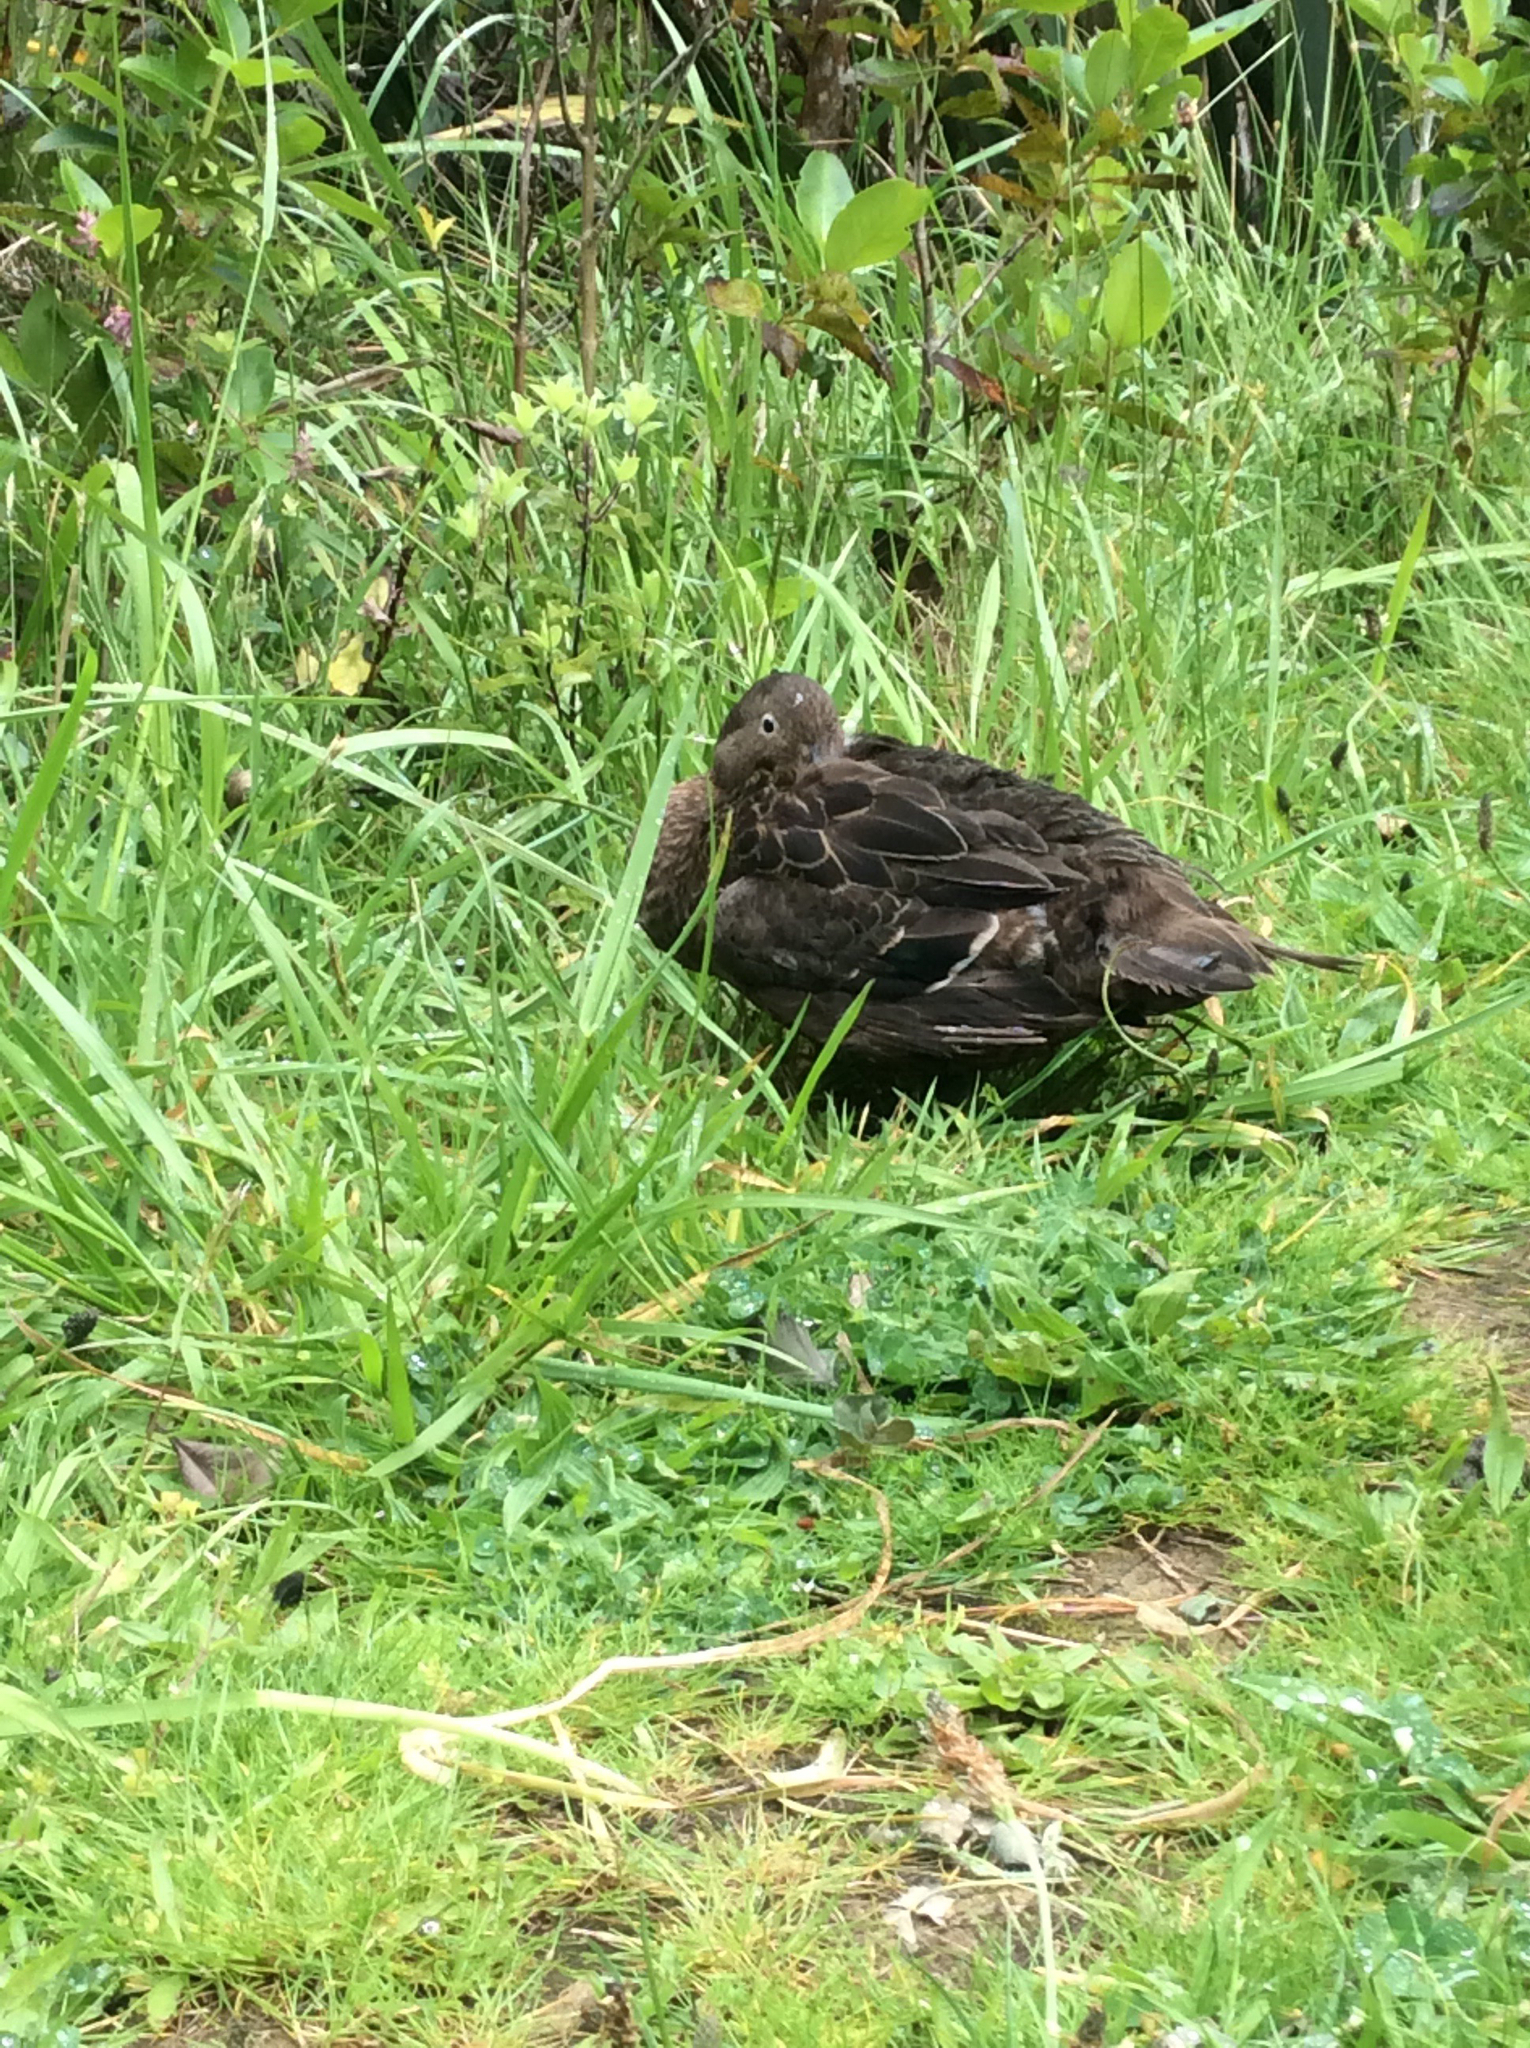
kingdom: Animalia
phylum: Chordata
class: Aves
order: Anseriformes
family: Anatidae
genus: Anas
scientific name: Anas chlorotis
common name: Brown teal
